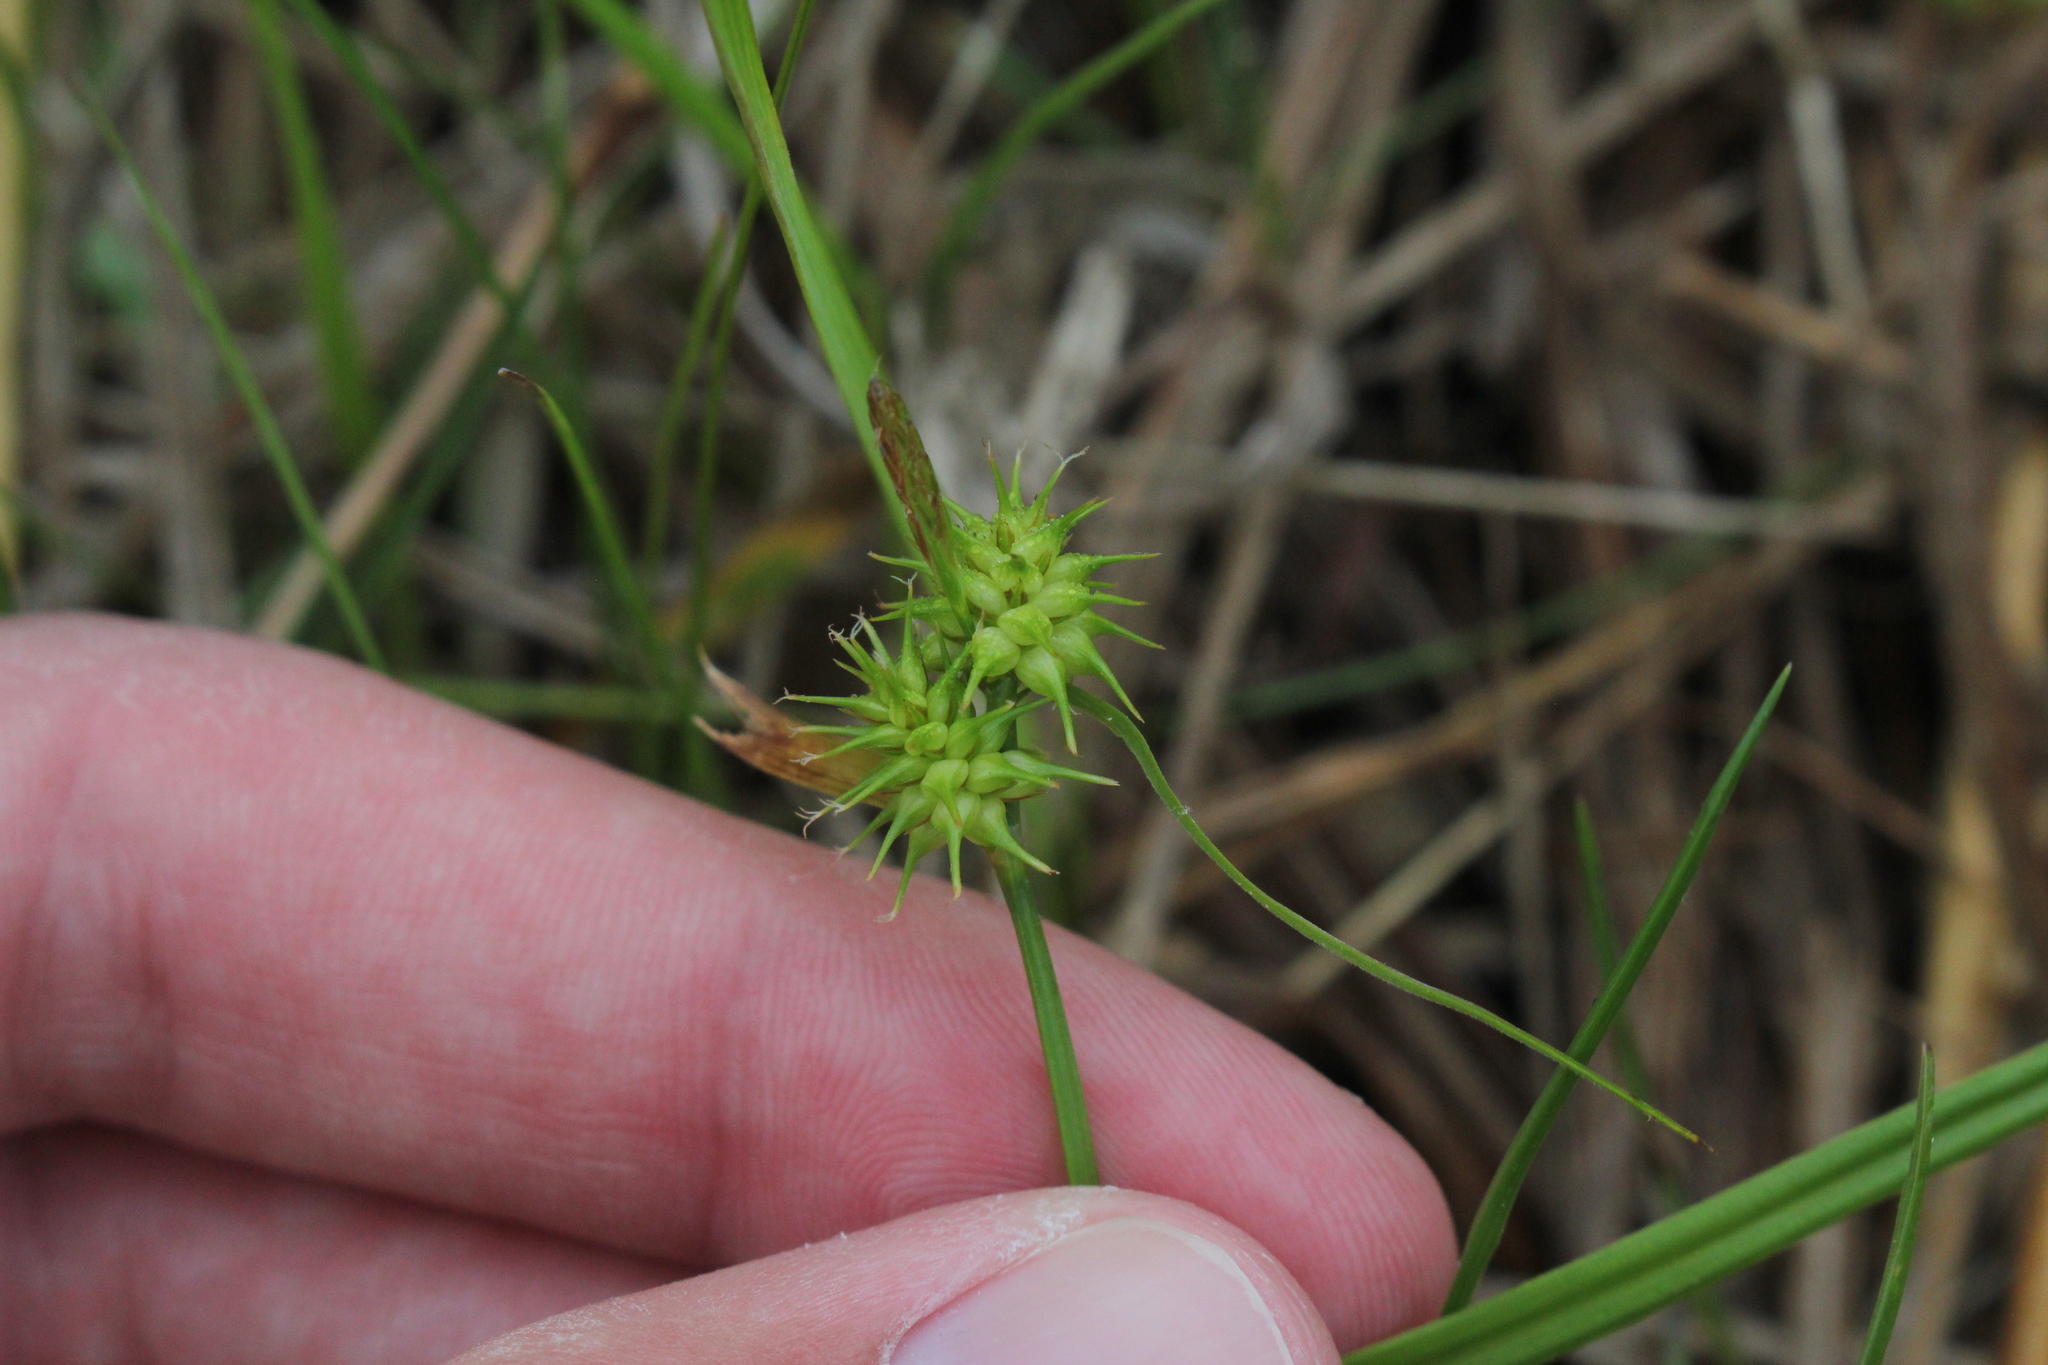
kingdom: Plantae
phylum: Tracheophyta
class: Liliopsida
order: Poales
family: Cyperaceae
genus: Carex
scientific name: Carex flava
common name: Large yellow-sedge
